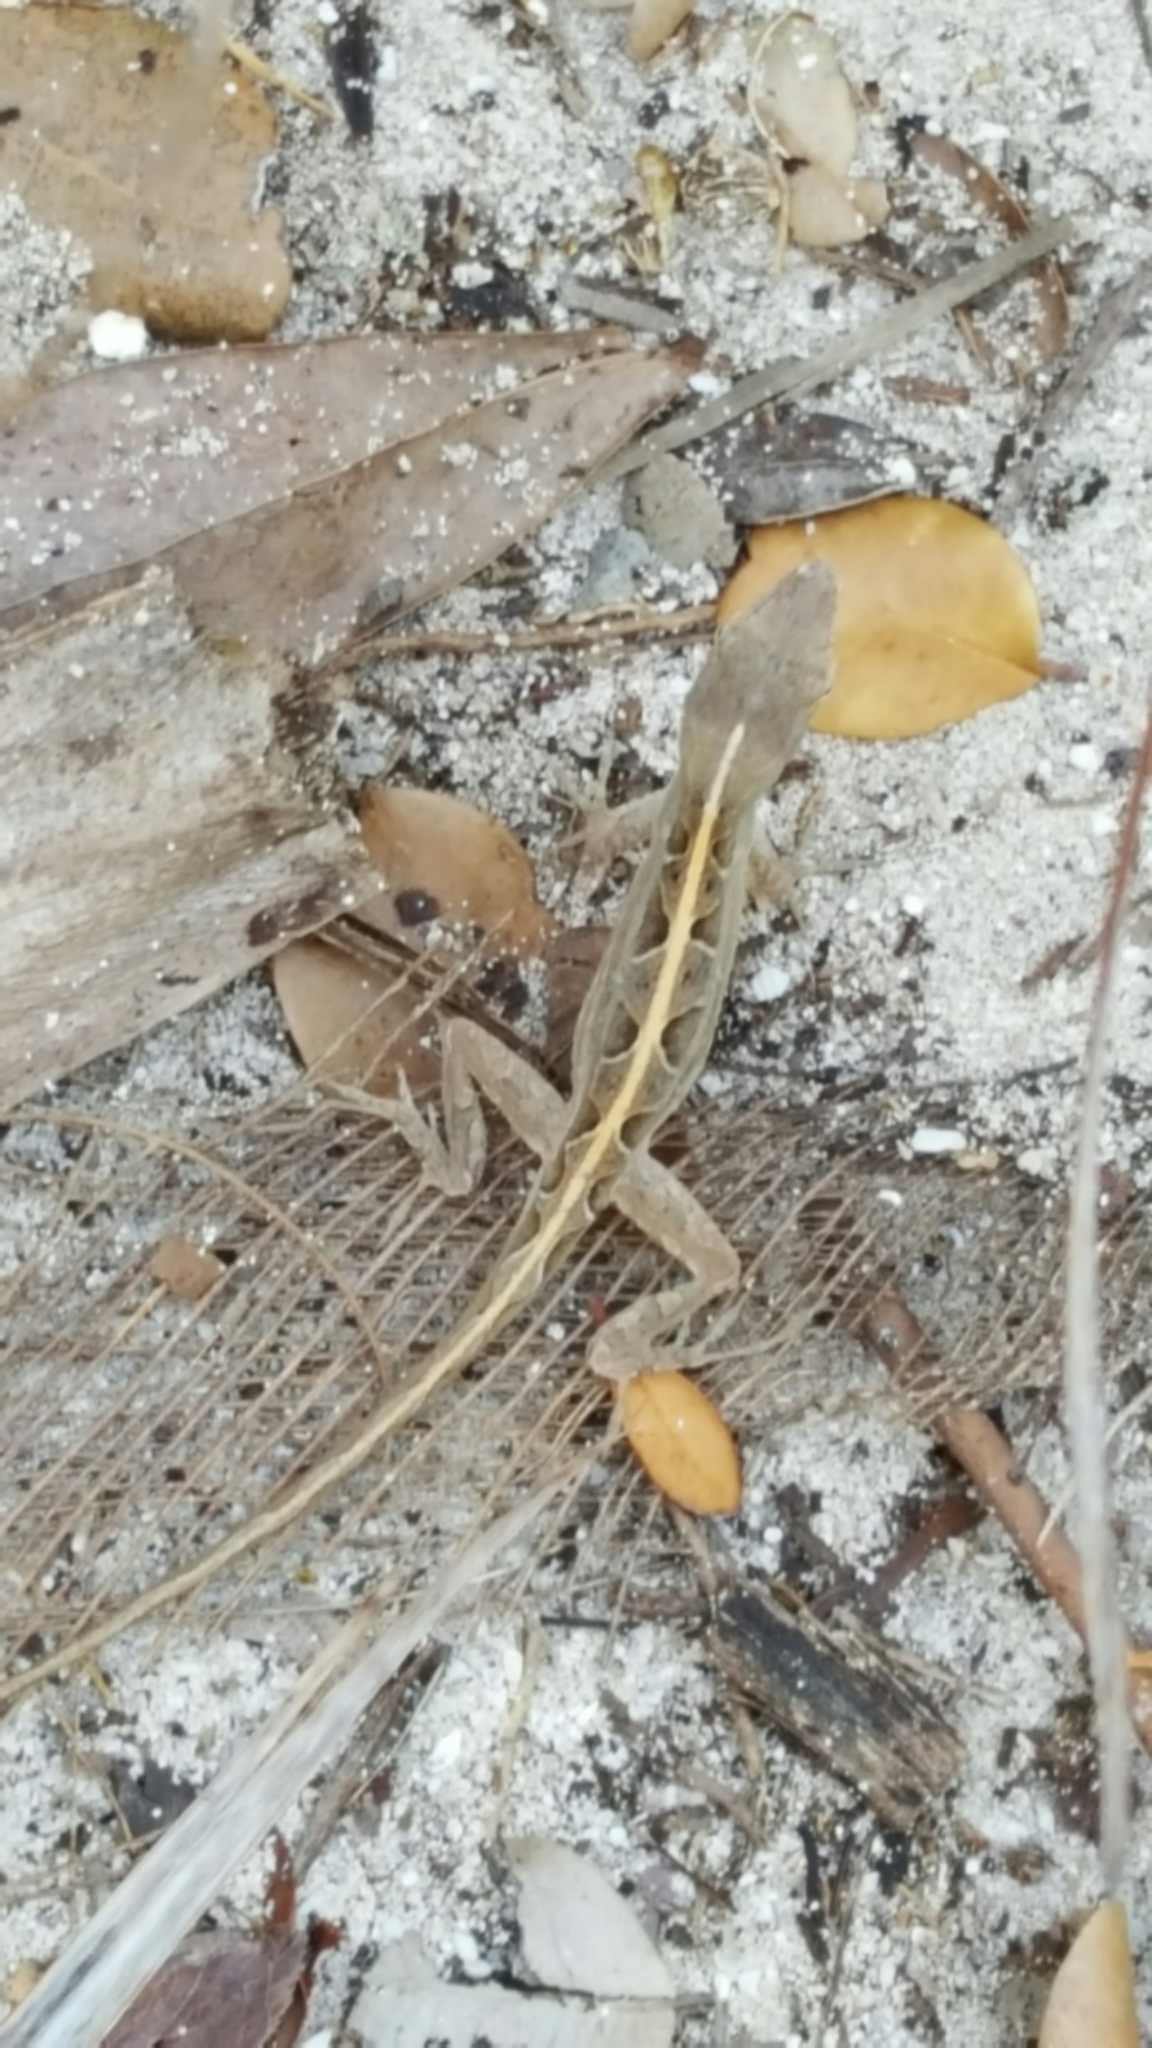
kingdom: Animalia
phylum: Chordata
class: Squamata
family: Dactyloidae
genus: Anolis
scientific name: Anolis sagrei
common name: Brown anole
